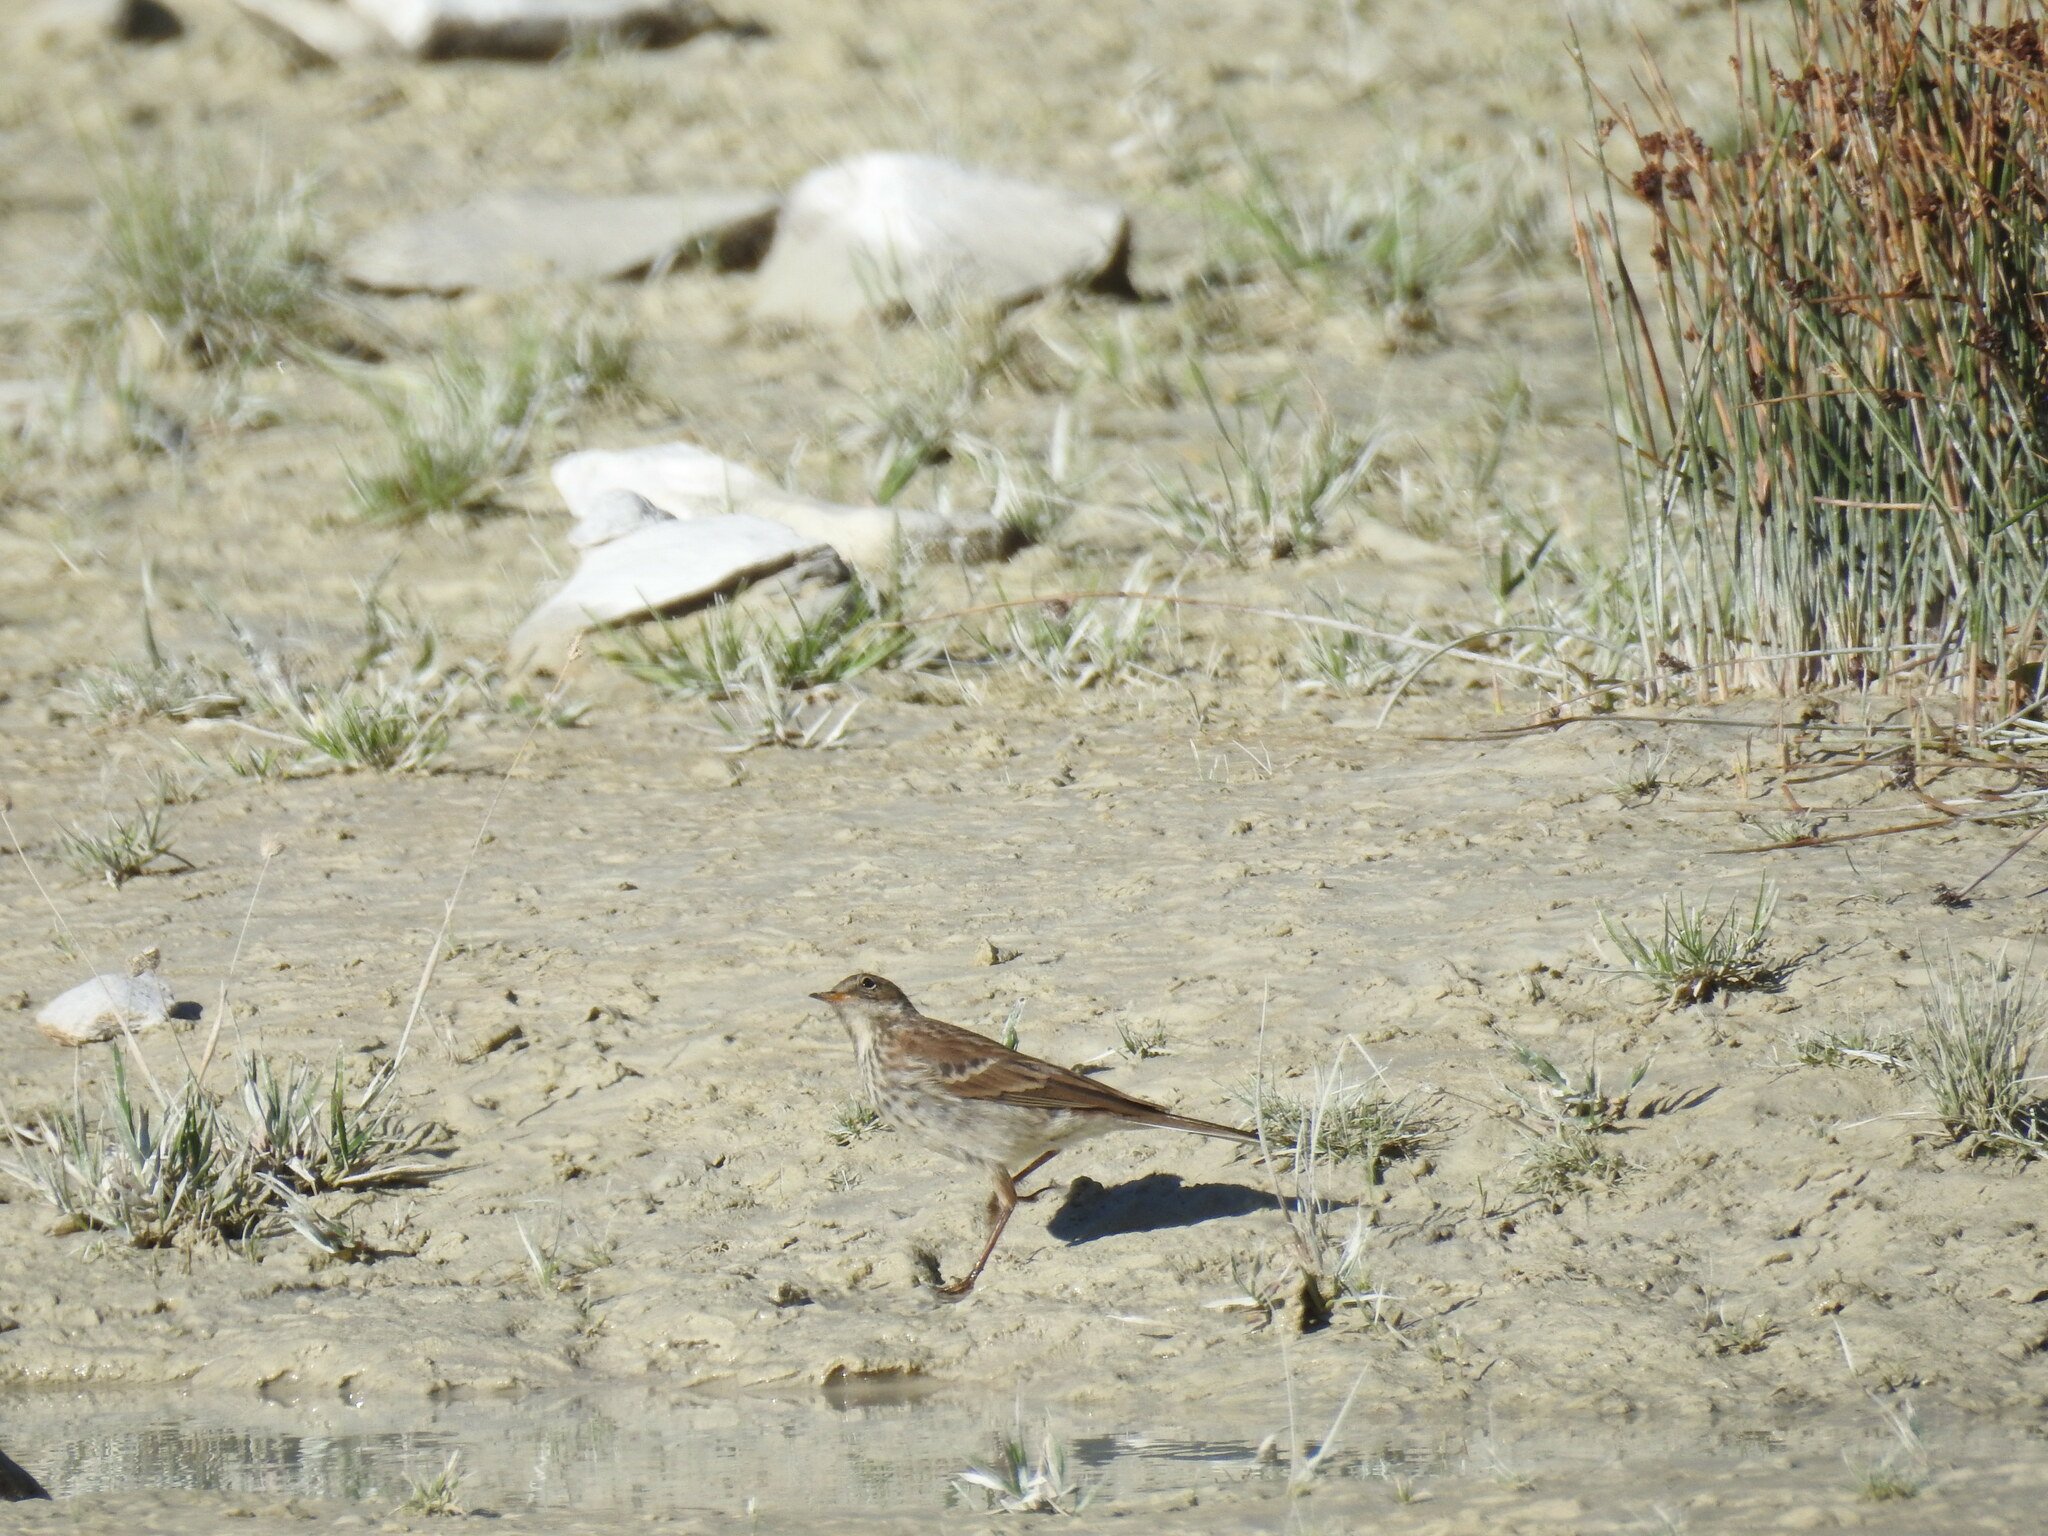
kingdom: Animalia
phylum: Chordata
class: Aves
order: Passeriformes
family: Motacillidae
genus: Anthus
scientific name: Anthus spinoletta
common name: Water pipit
